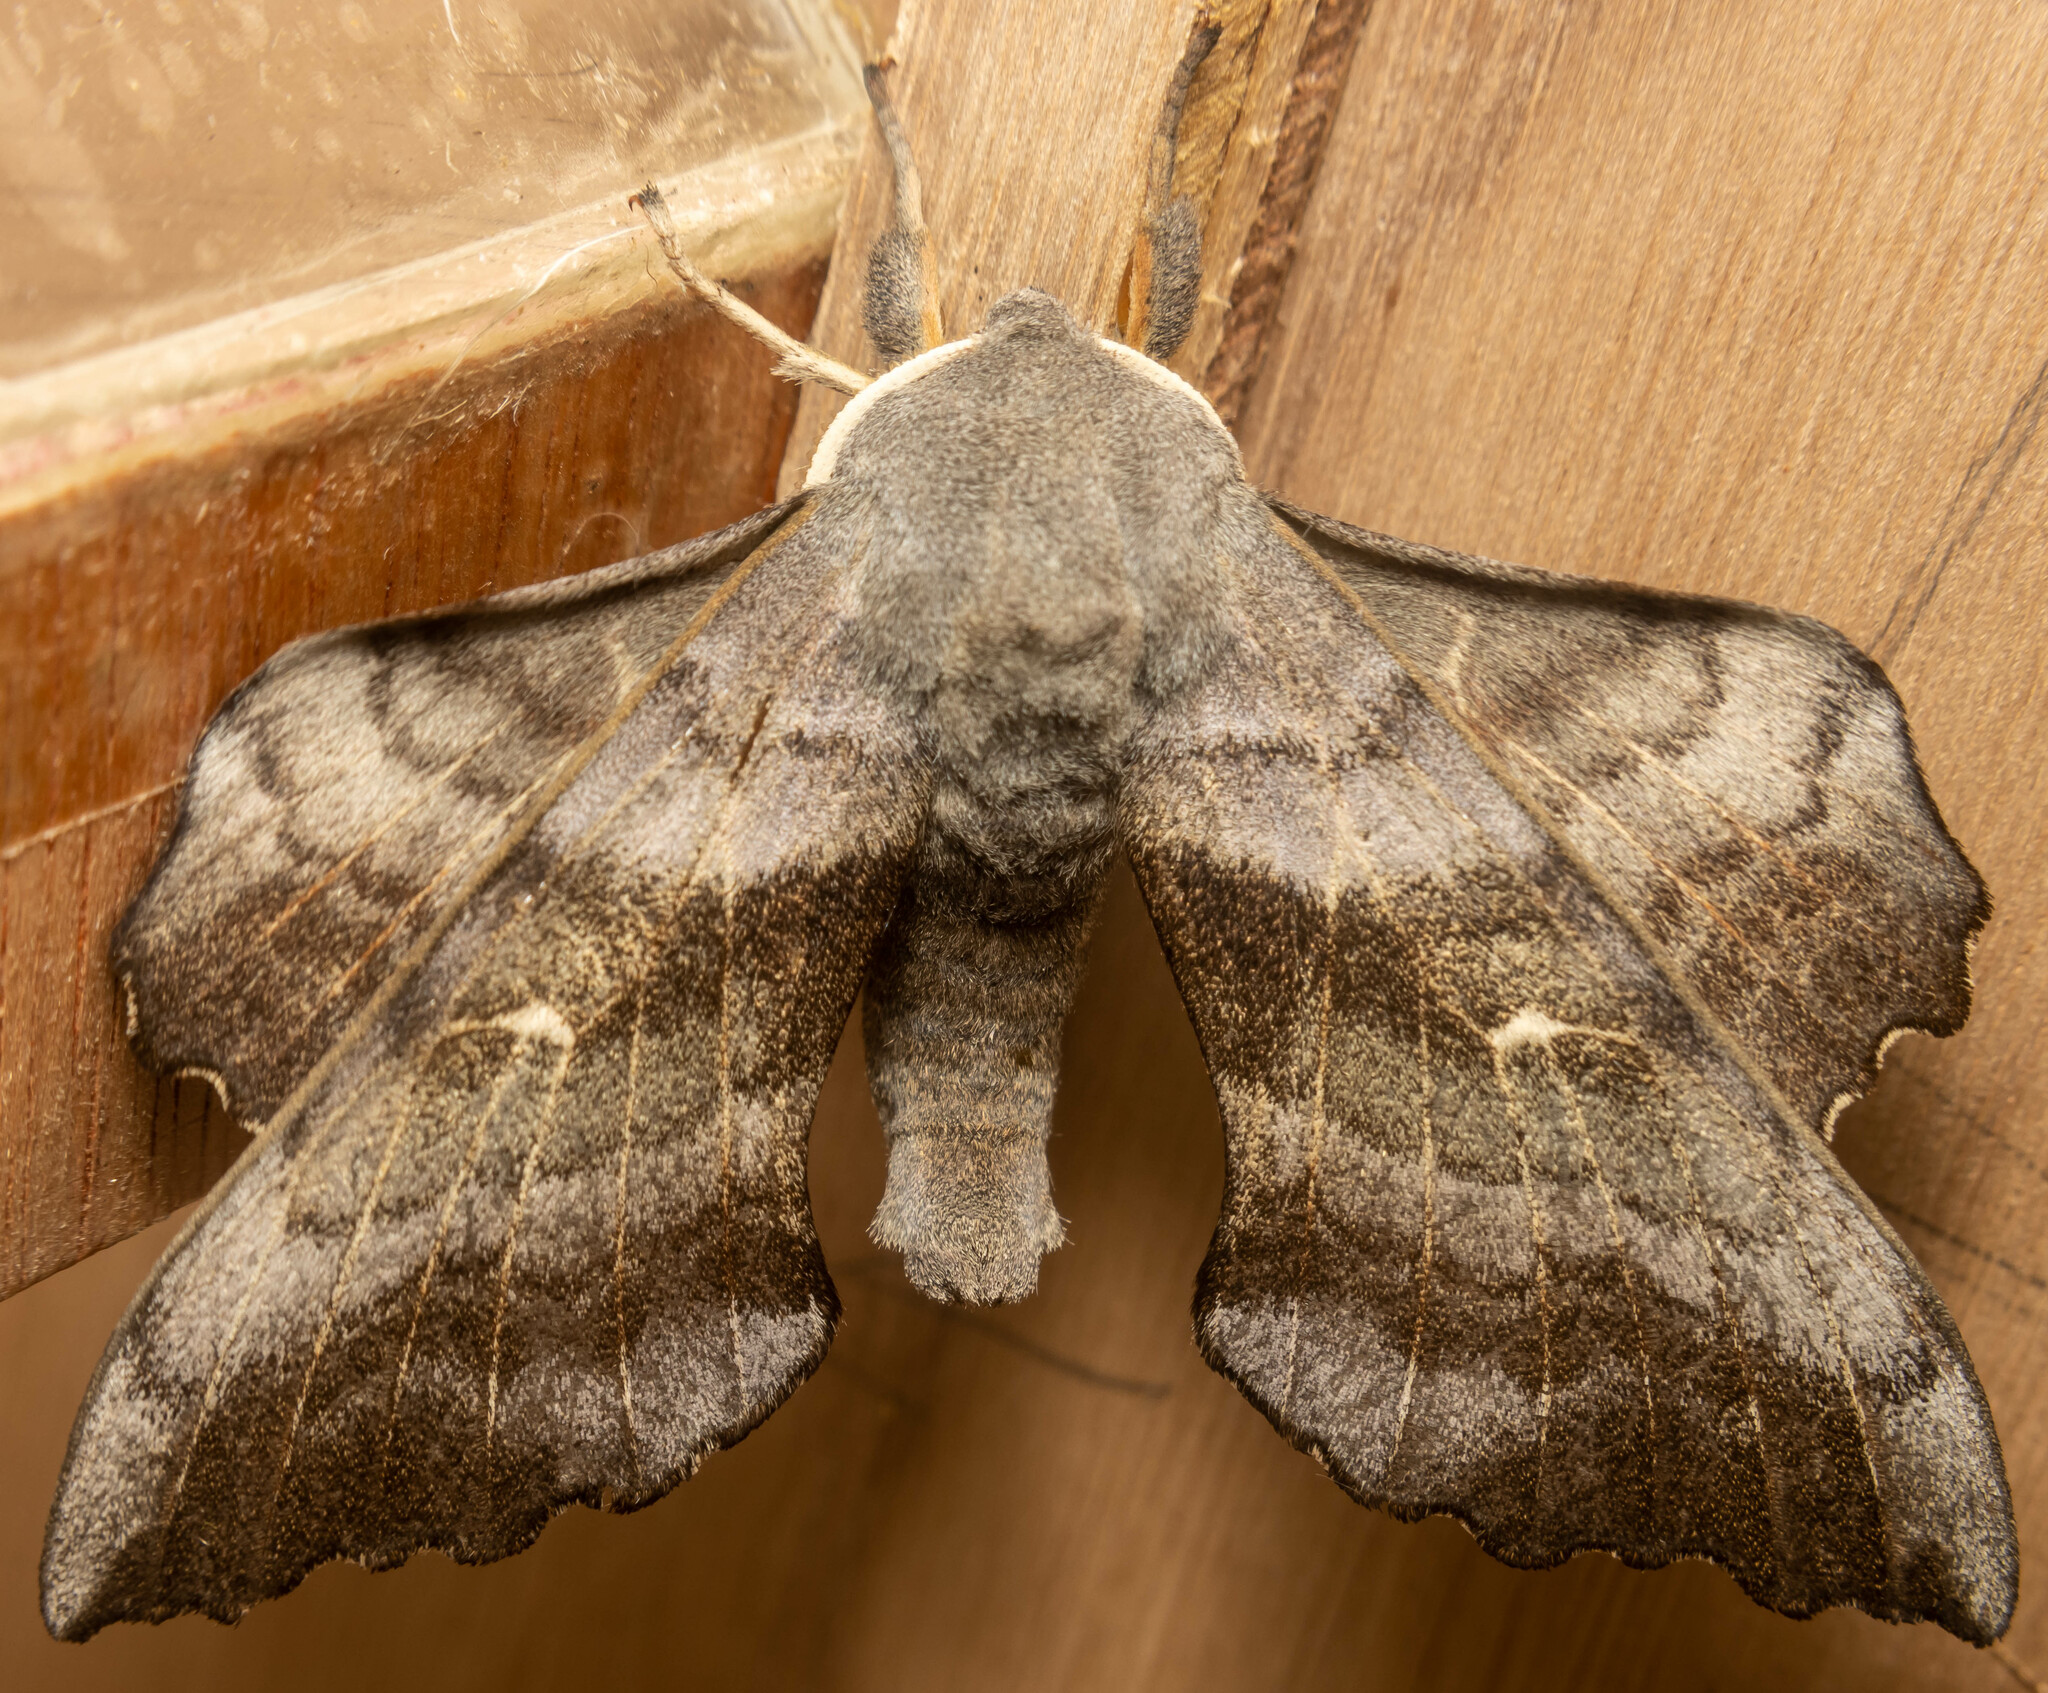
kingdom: Animalia
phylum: Arthropoda
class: Insecta
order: Lepidoptera
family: Sphingidae
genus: Laothoe
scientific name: Laothoe populi
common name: Poplar hawk-moth
